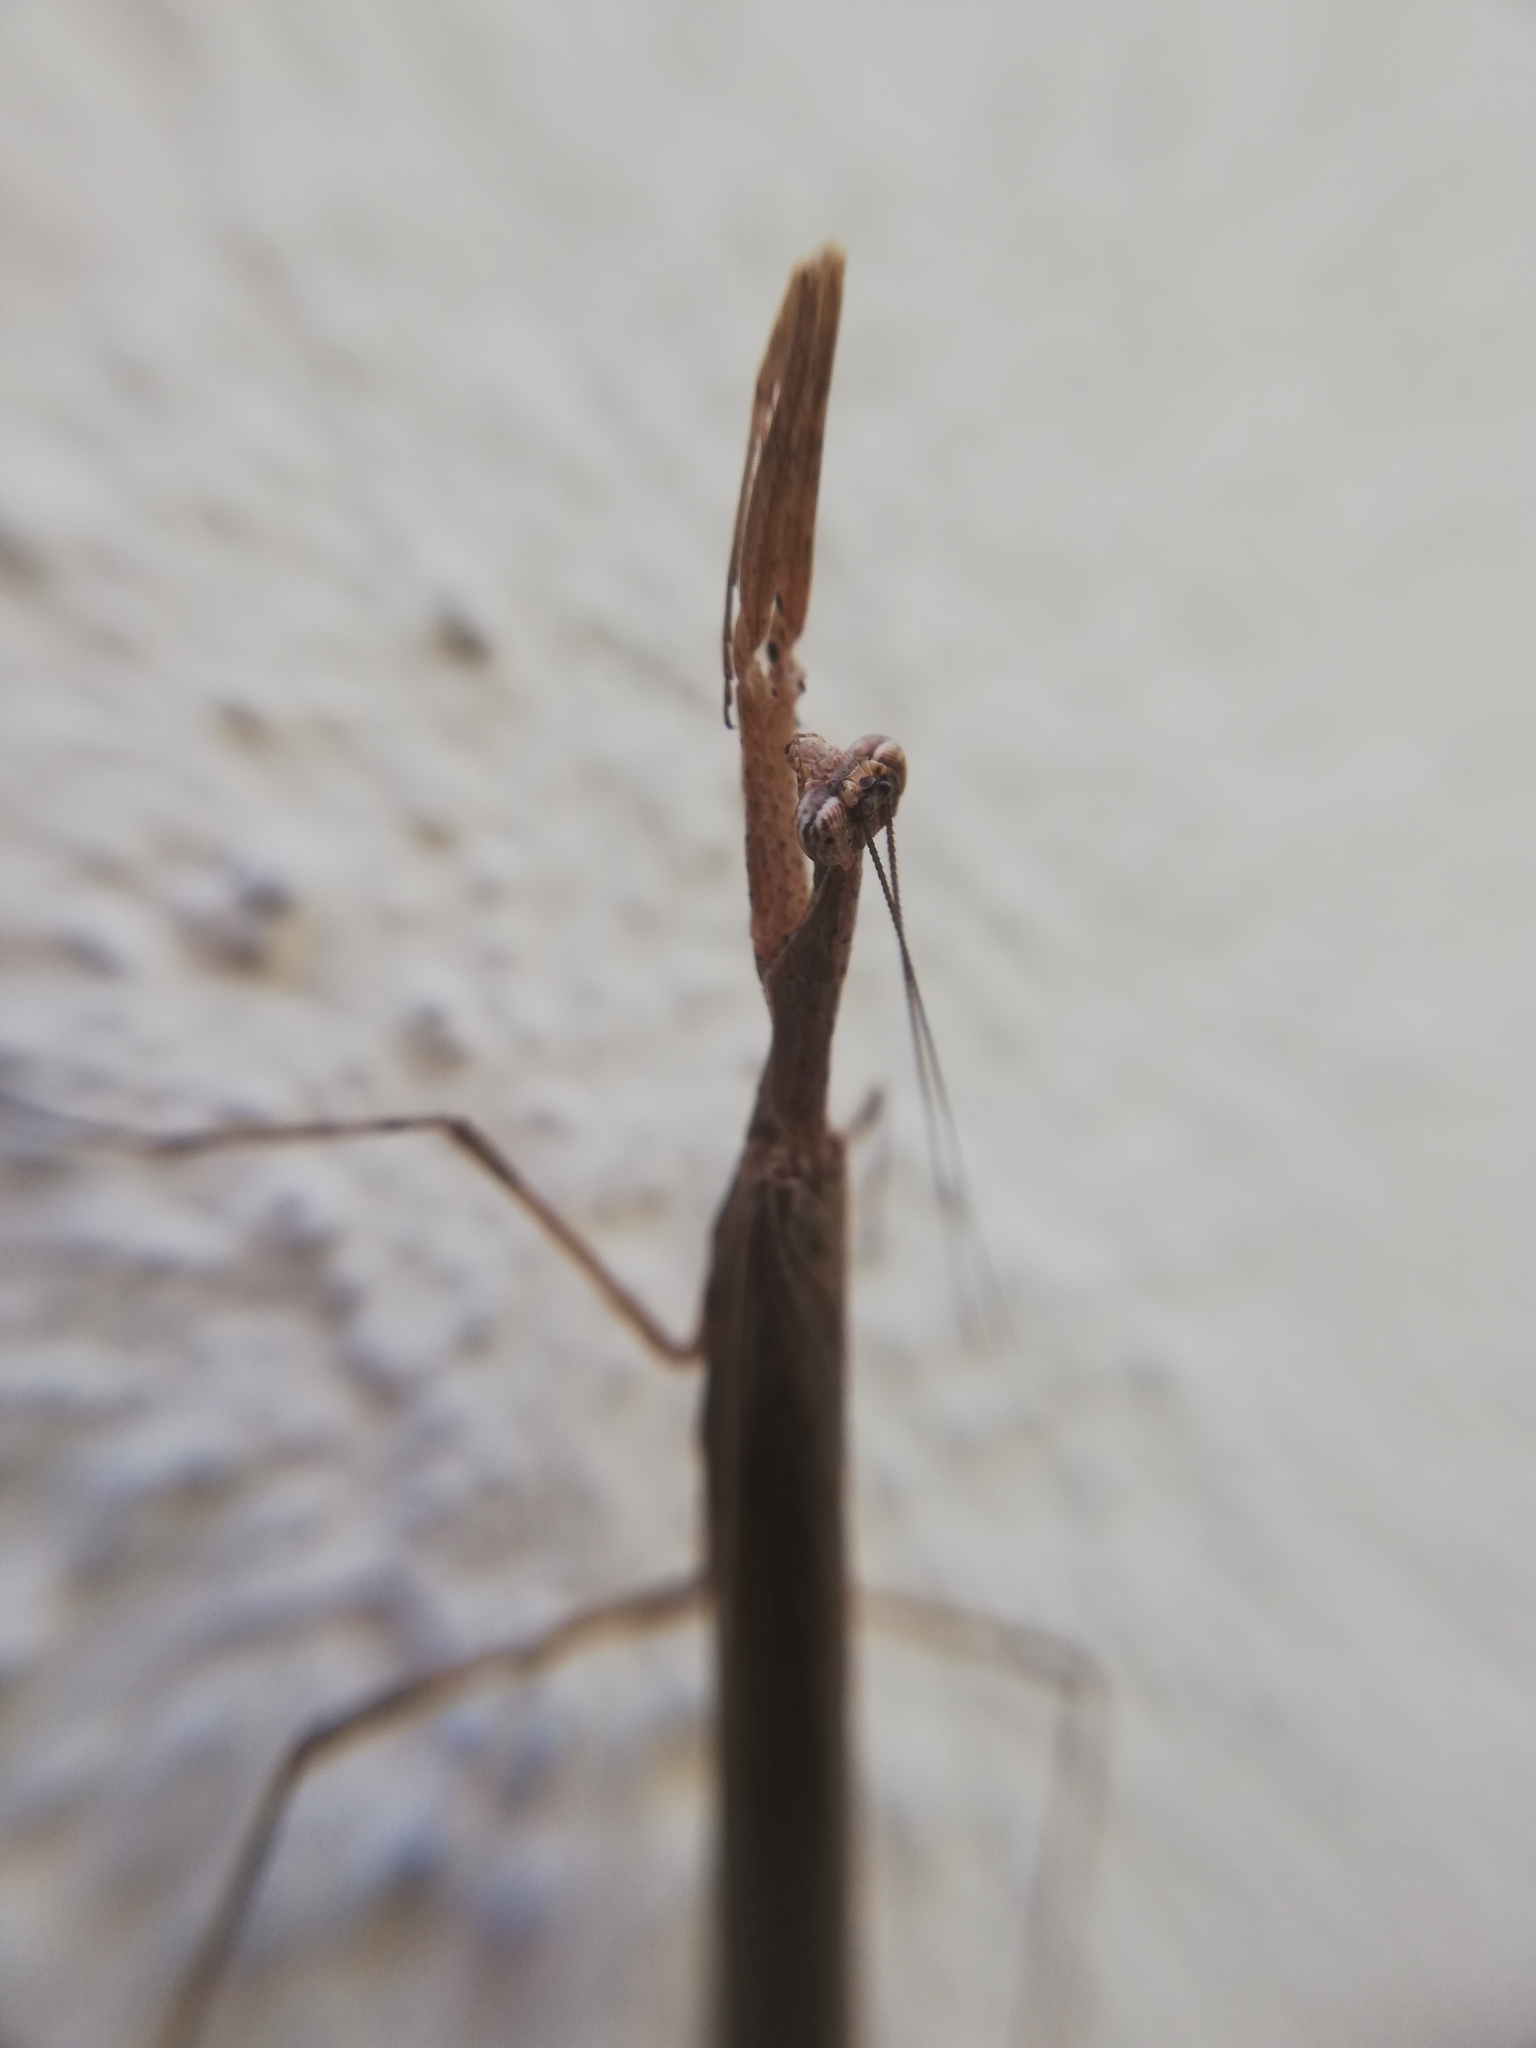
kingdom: Animalia
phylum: Arthropoda
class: Insecta
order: Mantodea
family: Thespidae
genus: Oligonicella
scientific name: Oligonicella scudderi
